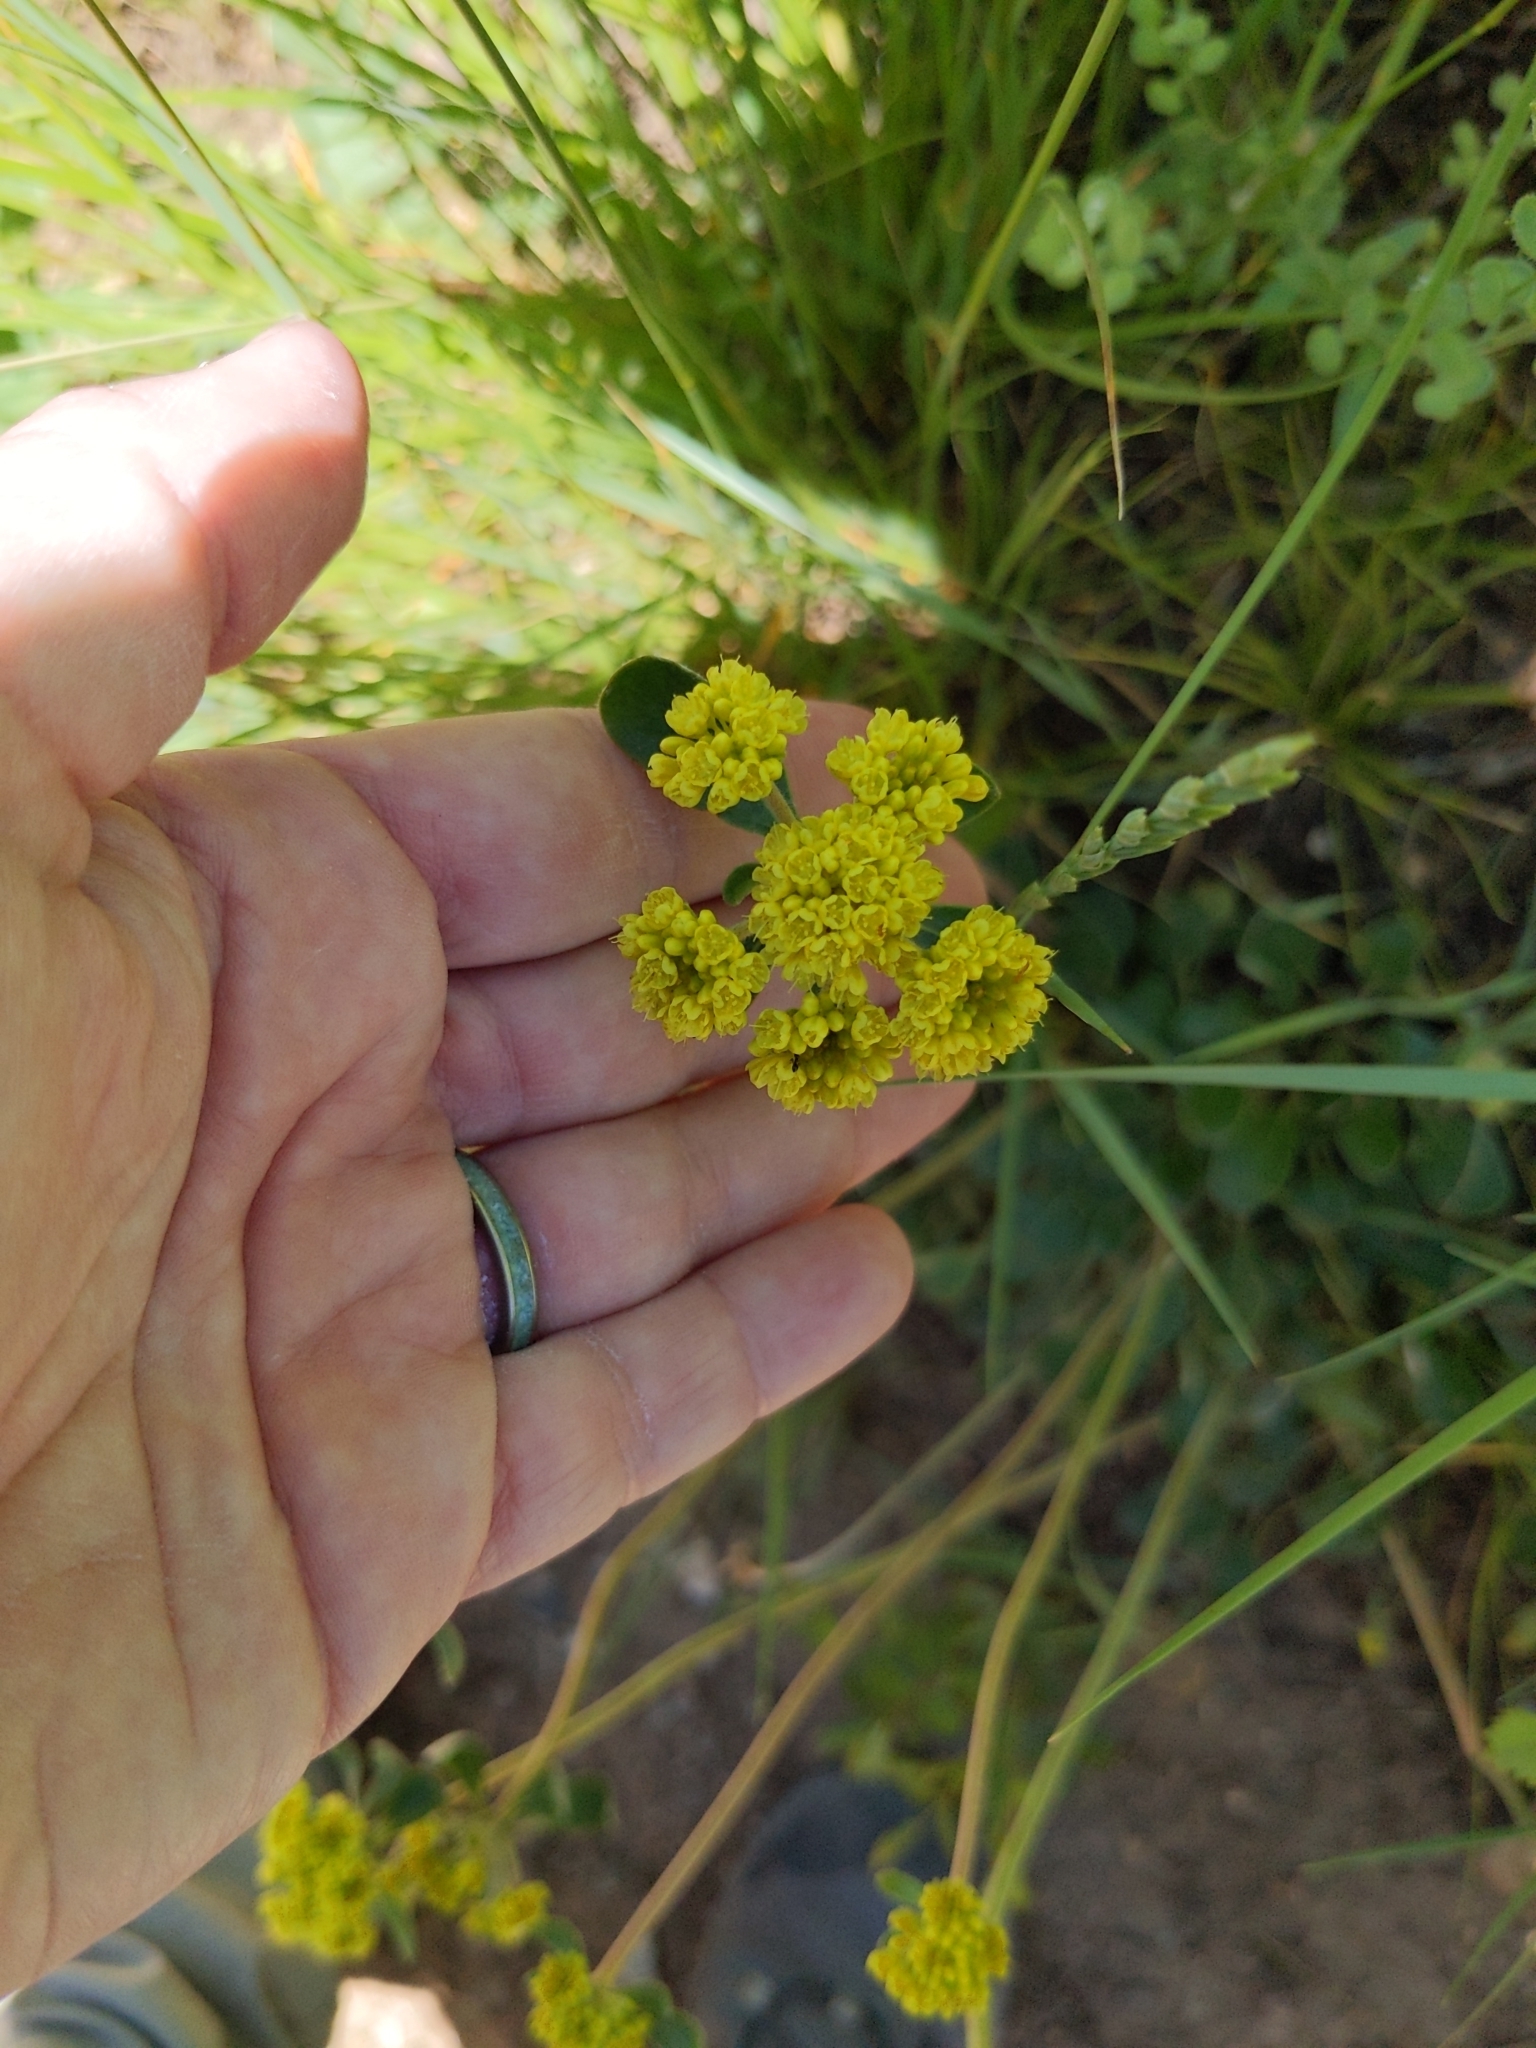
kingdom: Plantae
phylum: Tracheophyta
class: Magnoliopsida
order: Caryophyllales
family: Polygonaceae
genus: Eriogonum
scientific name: Eriogonum umbellatum
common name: Sulfur-buckwheat
